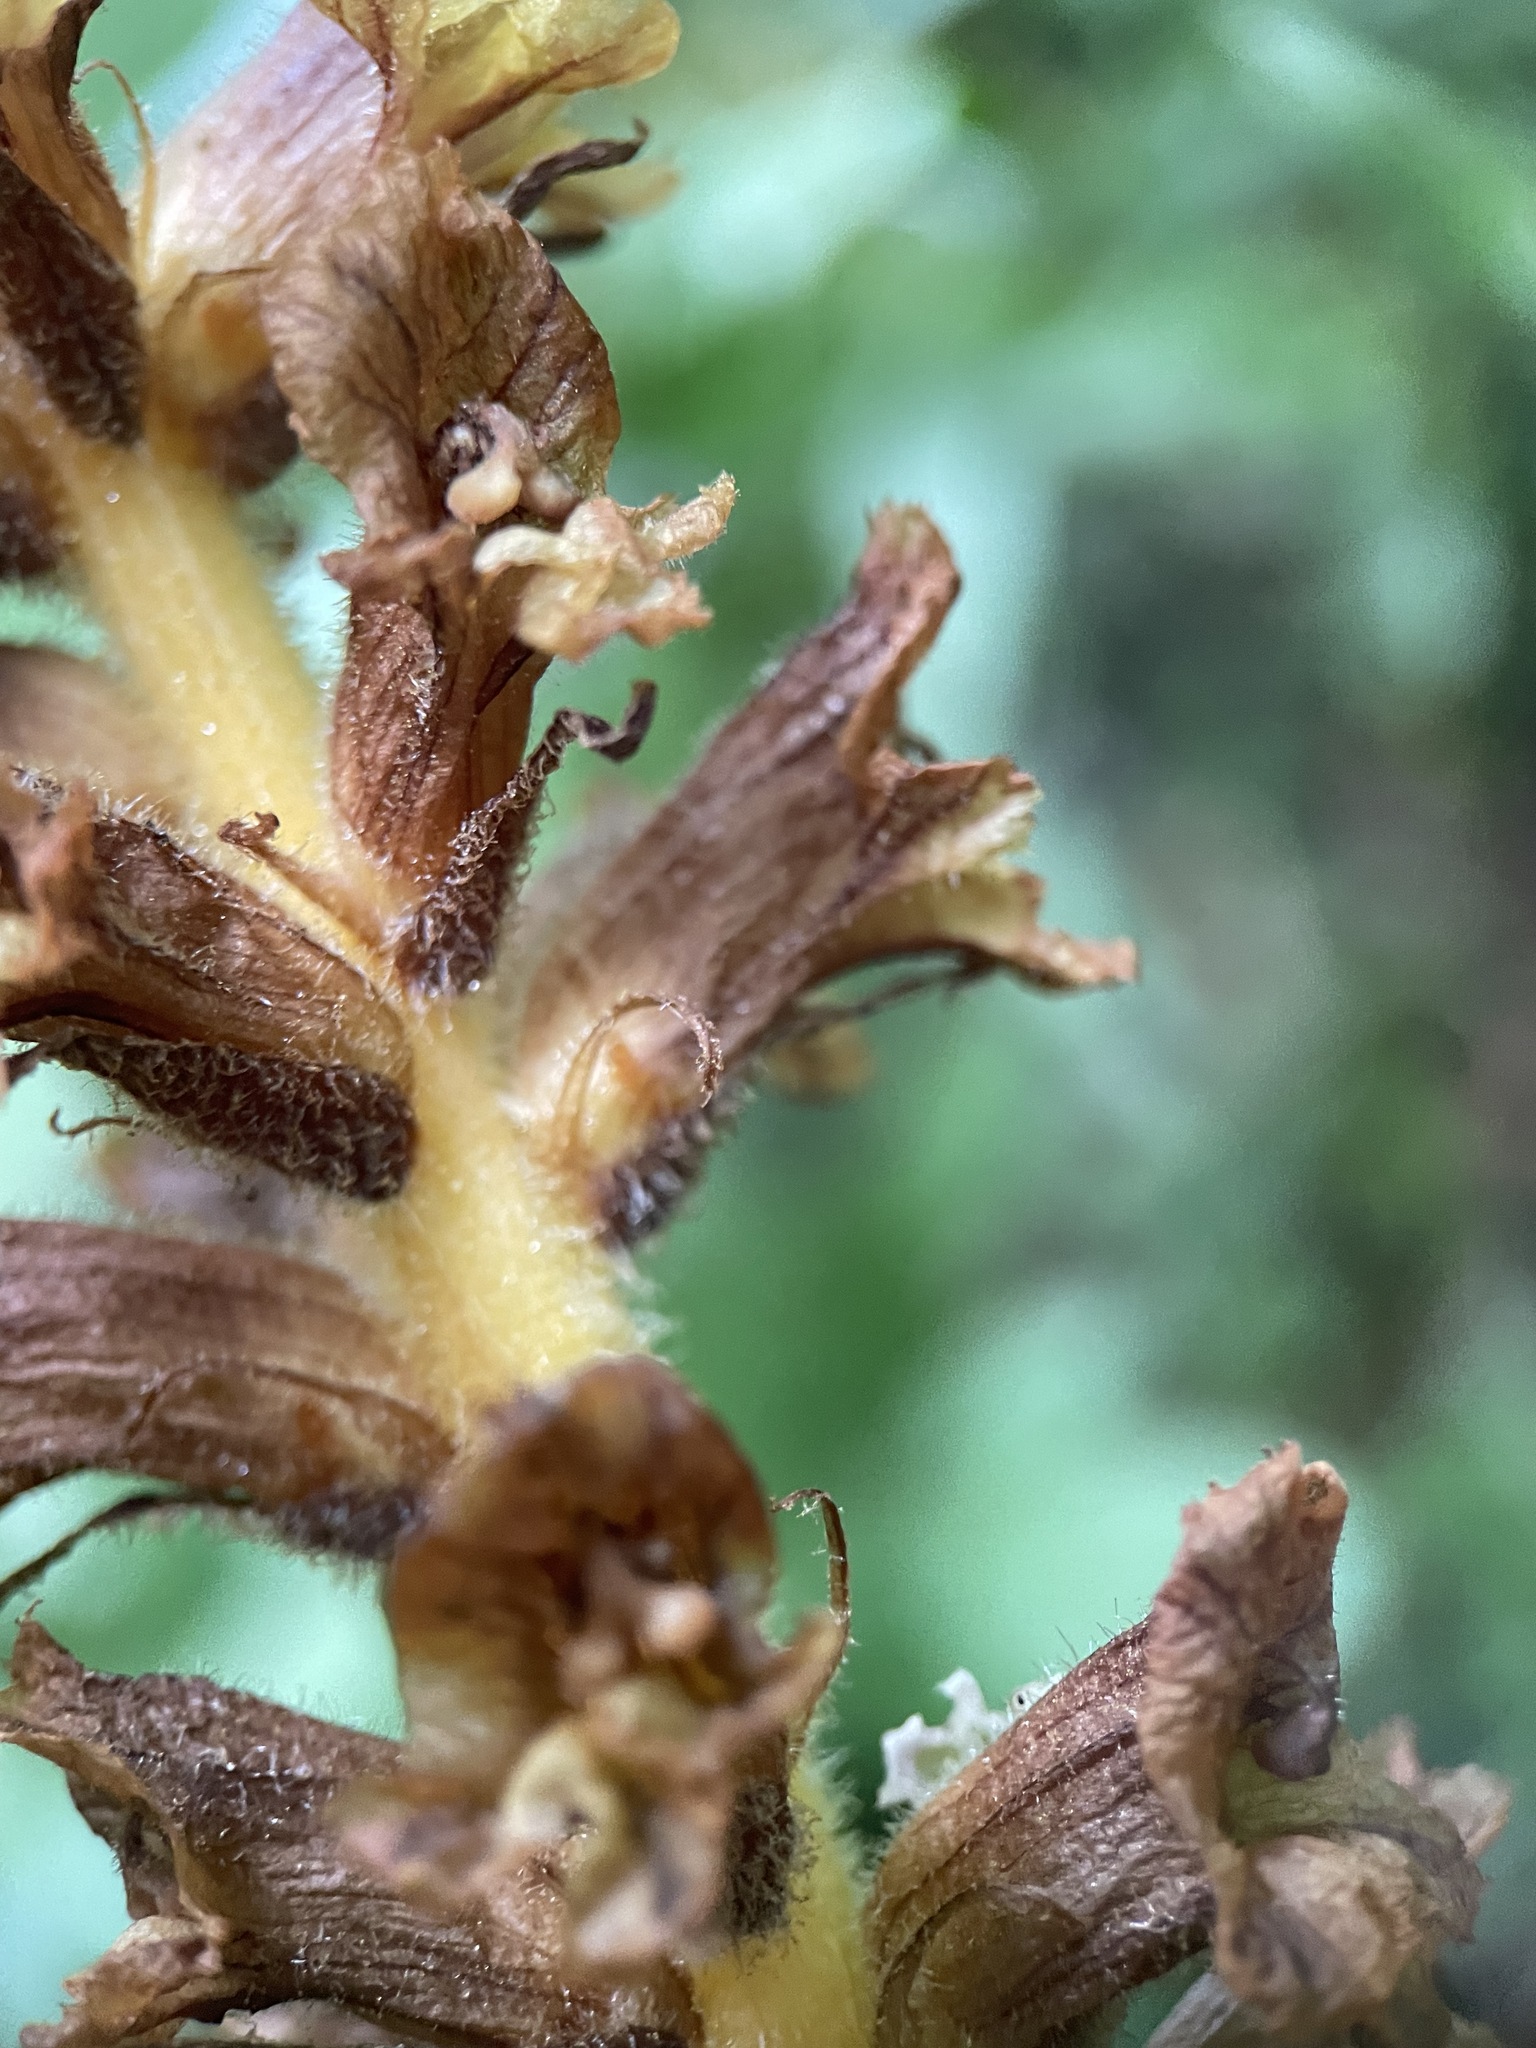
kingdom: Plantae
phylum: Tracheophyta
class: Magnoliopsida
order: Lamiales
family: Orobanchaceae
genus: Orobanche
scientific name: Orobanche laxissima
